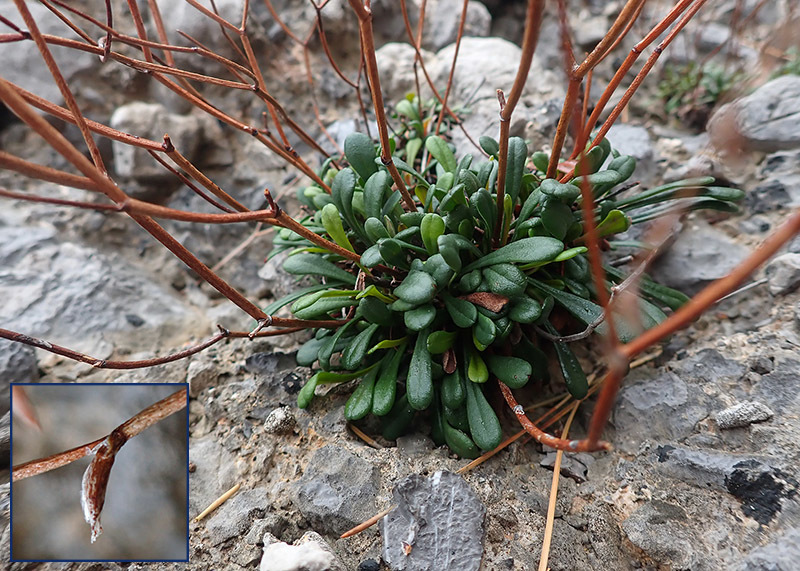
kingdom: Plantae
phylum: Tracheophyta
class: Magnoliopsida
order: Caryophyllales
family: Plumbaginaceae
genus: Limonium
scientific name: Limonium remotispiculum
